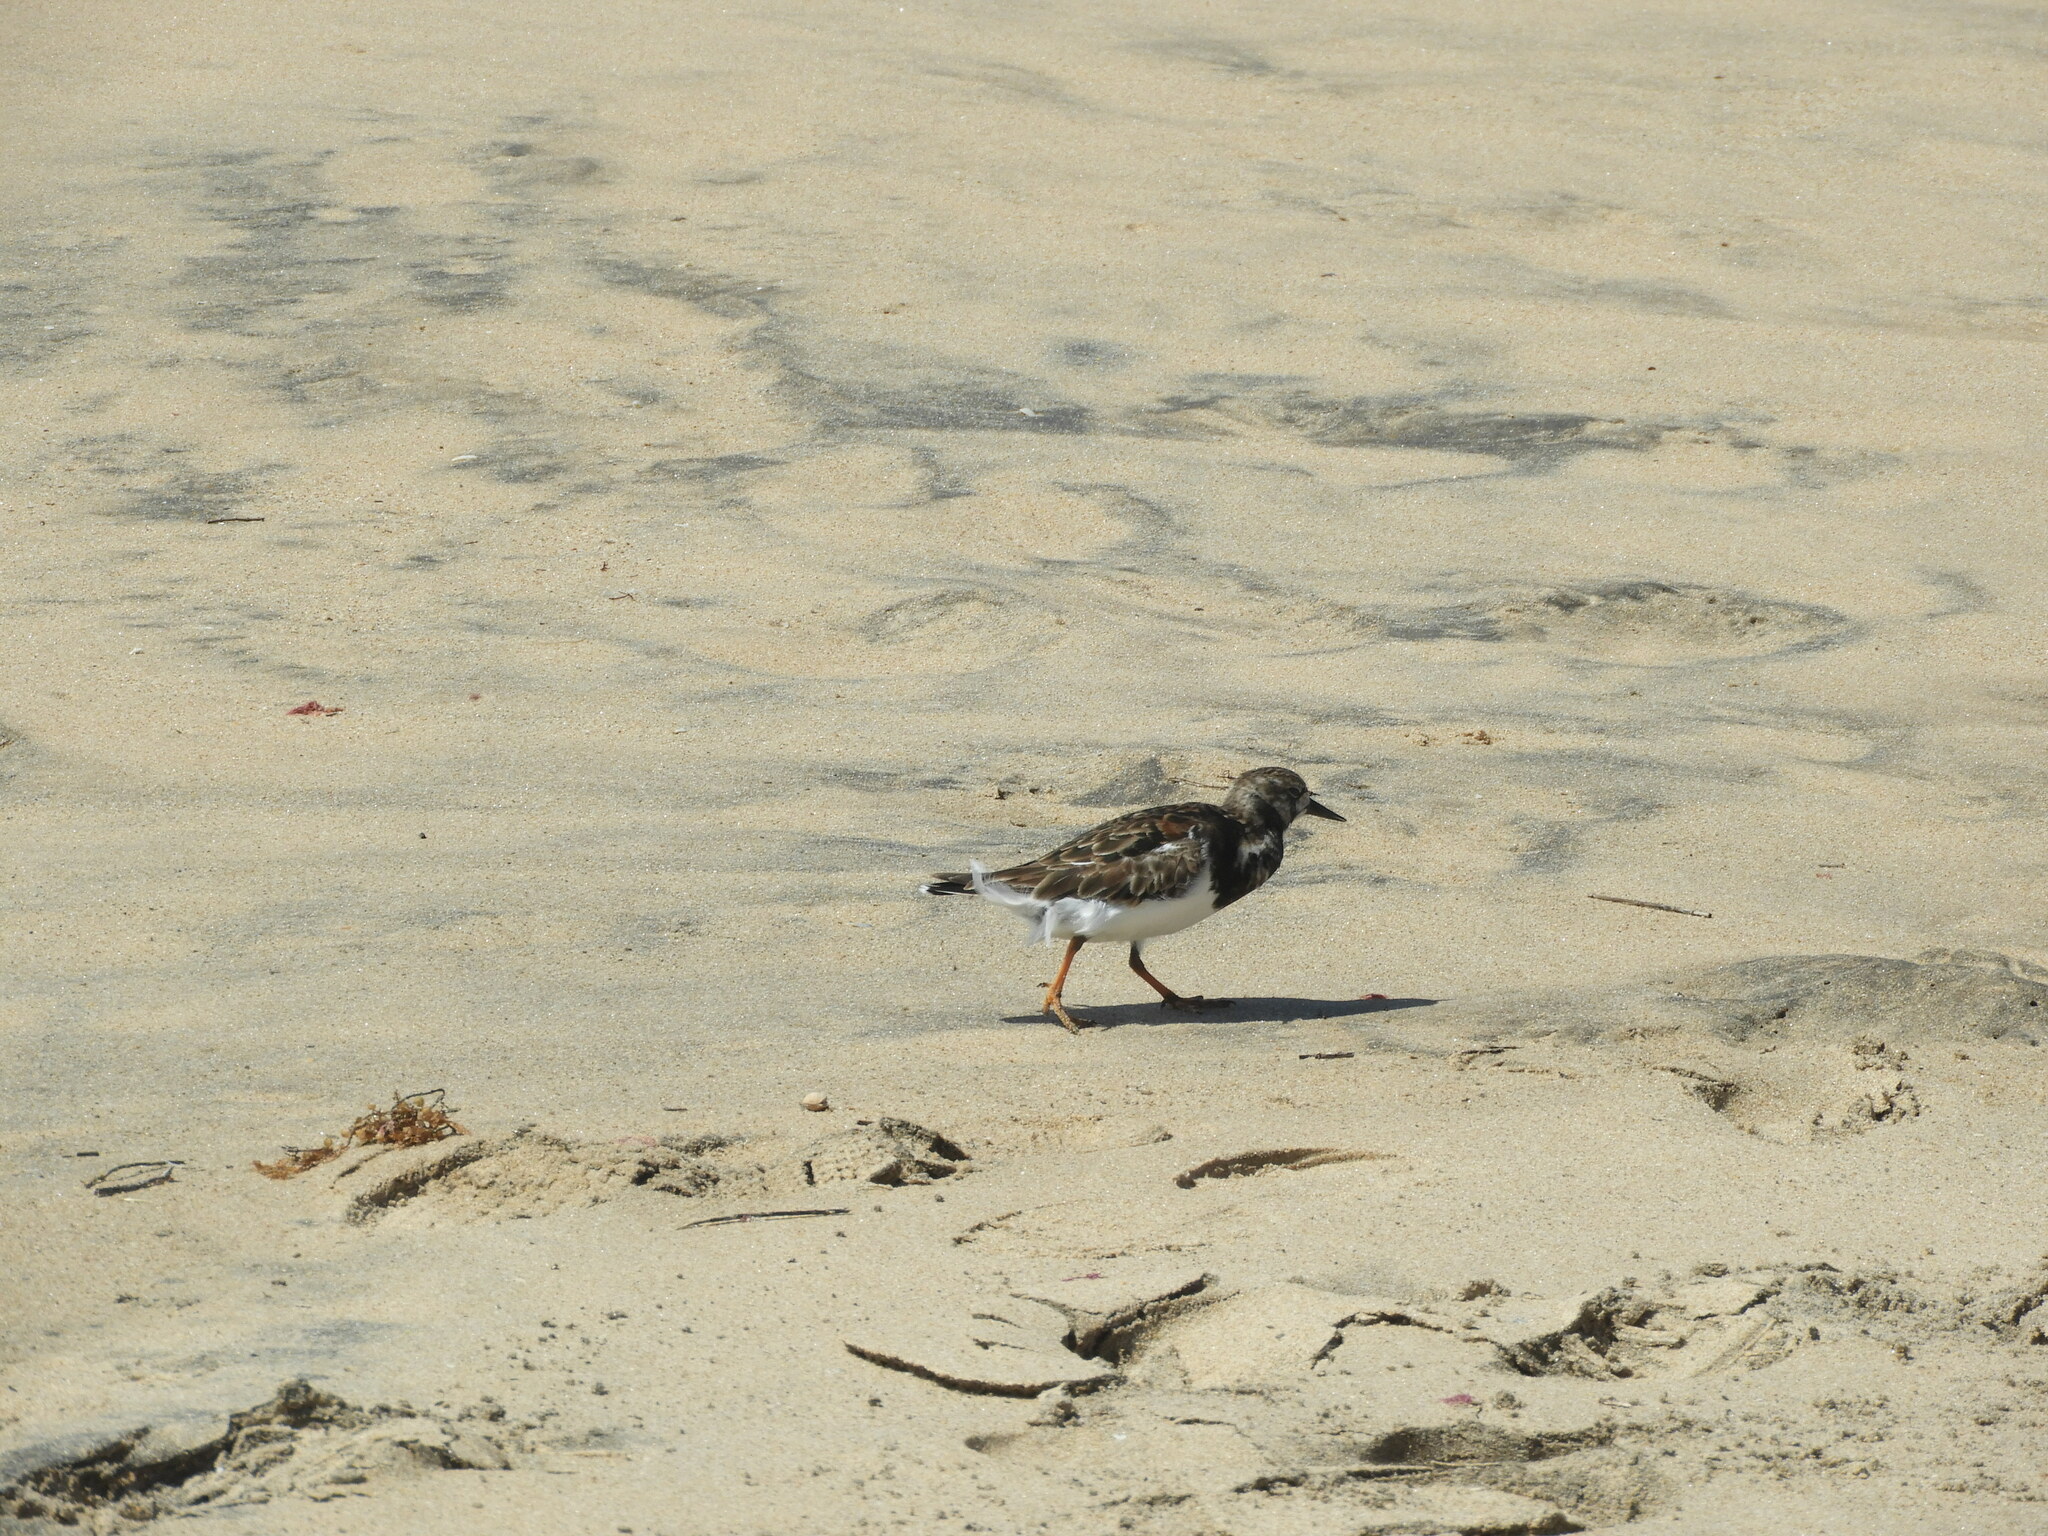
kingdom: Animalia
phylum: Chordata
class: Aves
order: Charadriiformes
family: Scolopacidae
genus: Arenaria
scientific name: Arenaria interpres
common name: Ruddy turnstone
